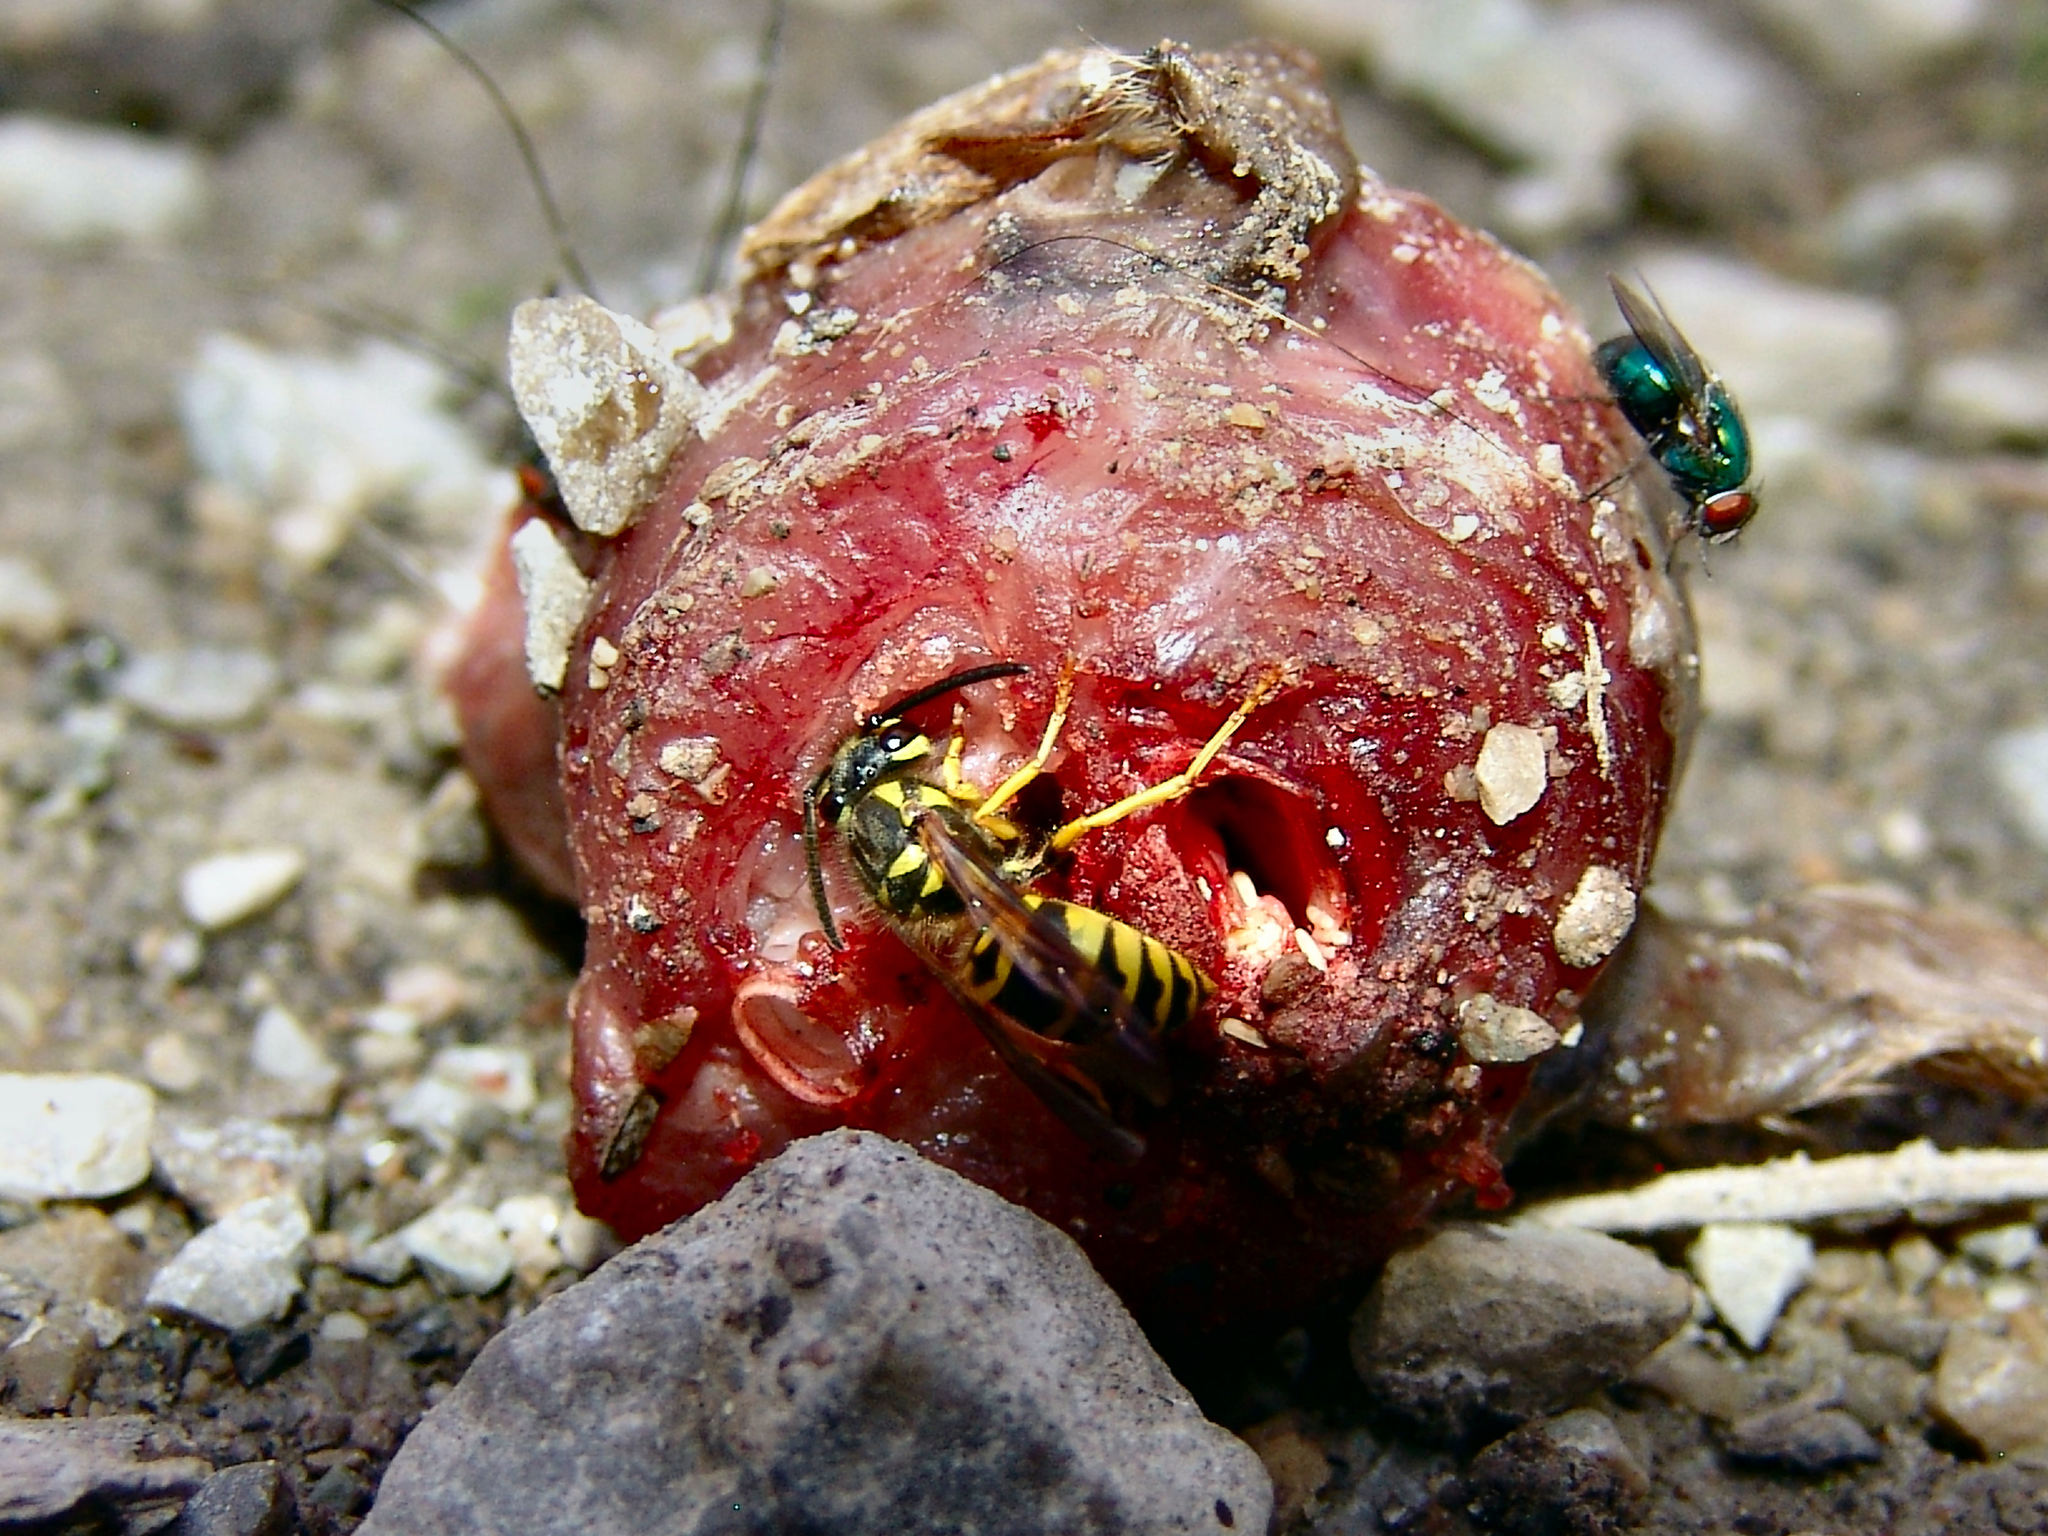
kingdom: Animalia
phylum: Arthropoda
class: Insecta
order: Hymenoptera
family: Vespidae
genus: Vespula
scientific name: Vespula maculifrons
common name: Eastern yellowjacket
